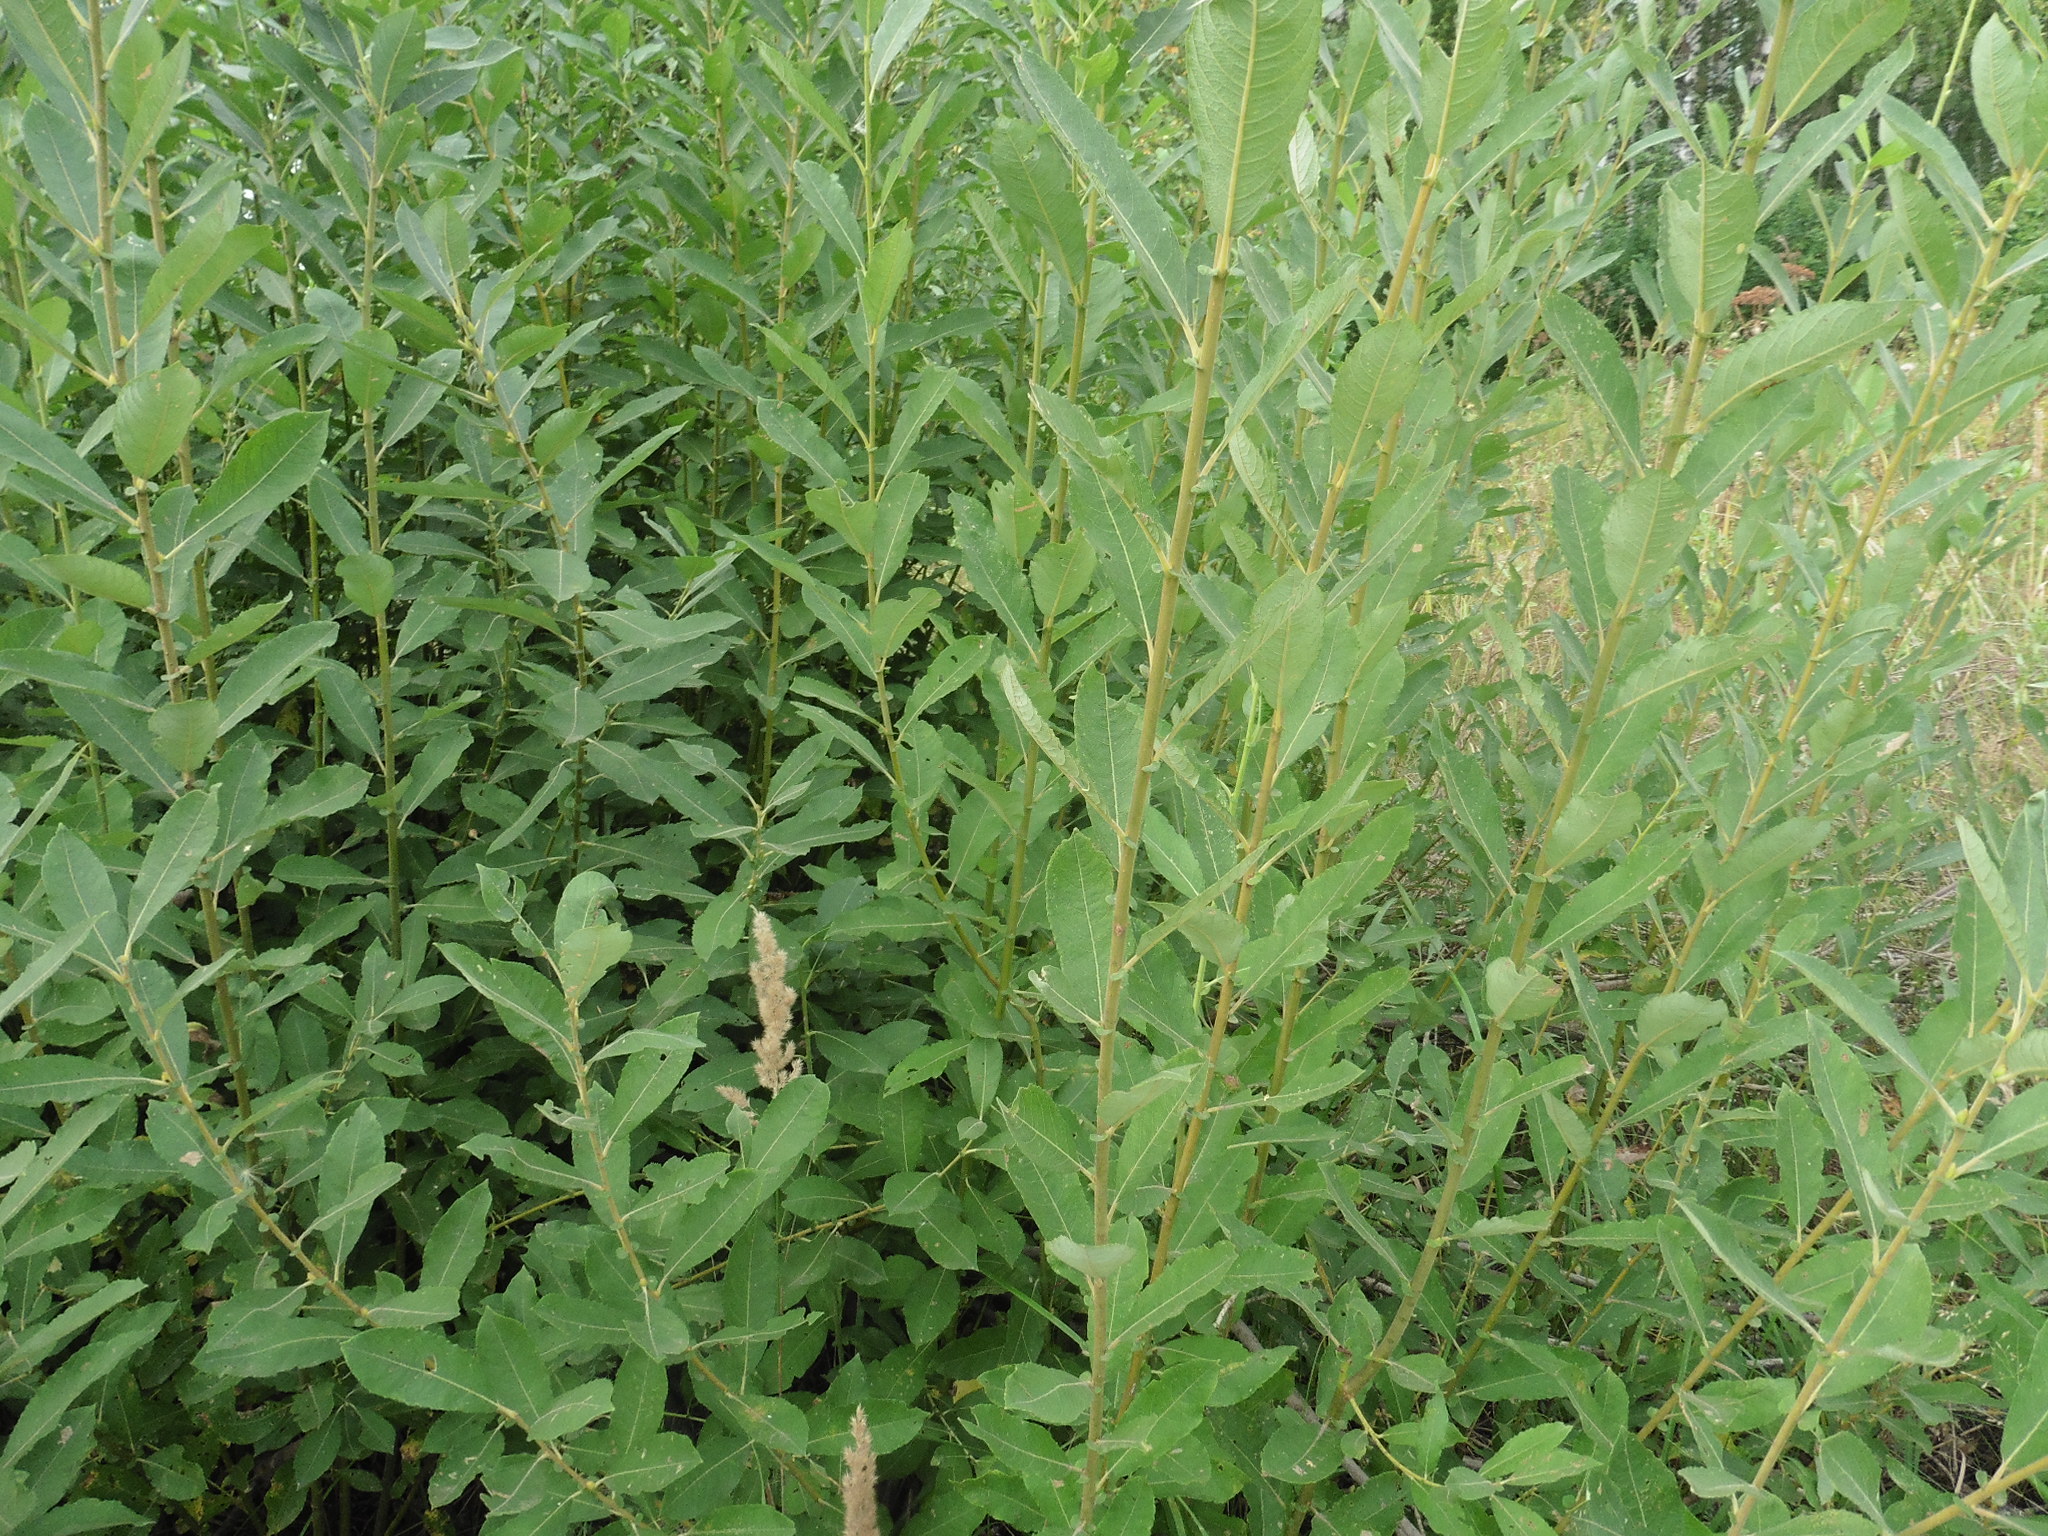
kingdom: Plantae
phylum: Tracheophyta
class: Magnoliopsida
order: Malpighiales
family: Salicaceae
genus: Salix
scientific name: Salix cinerea
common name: Common sallow
